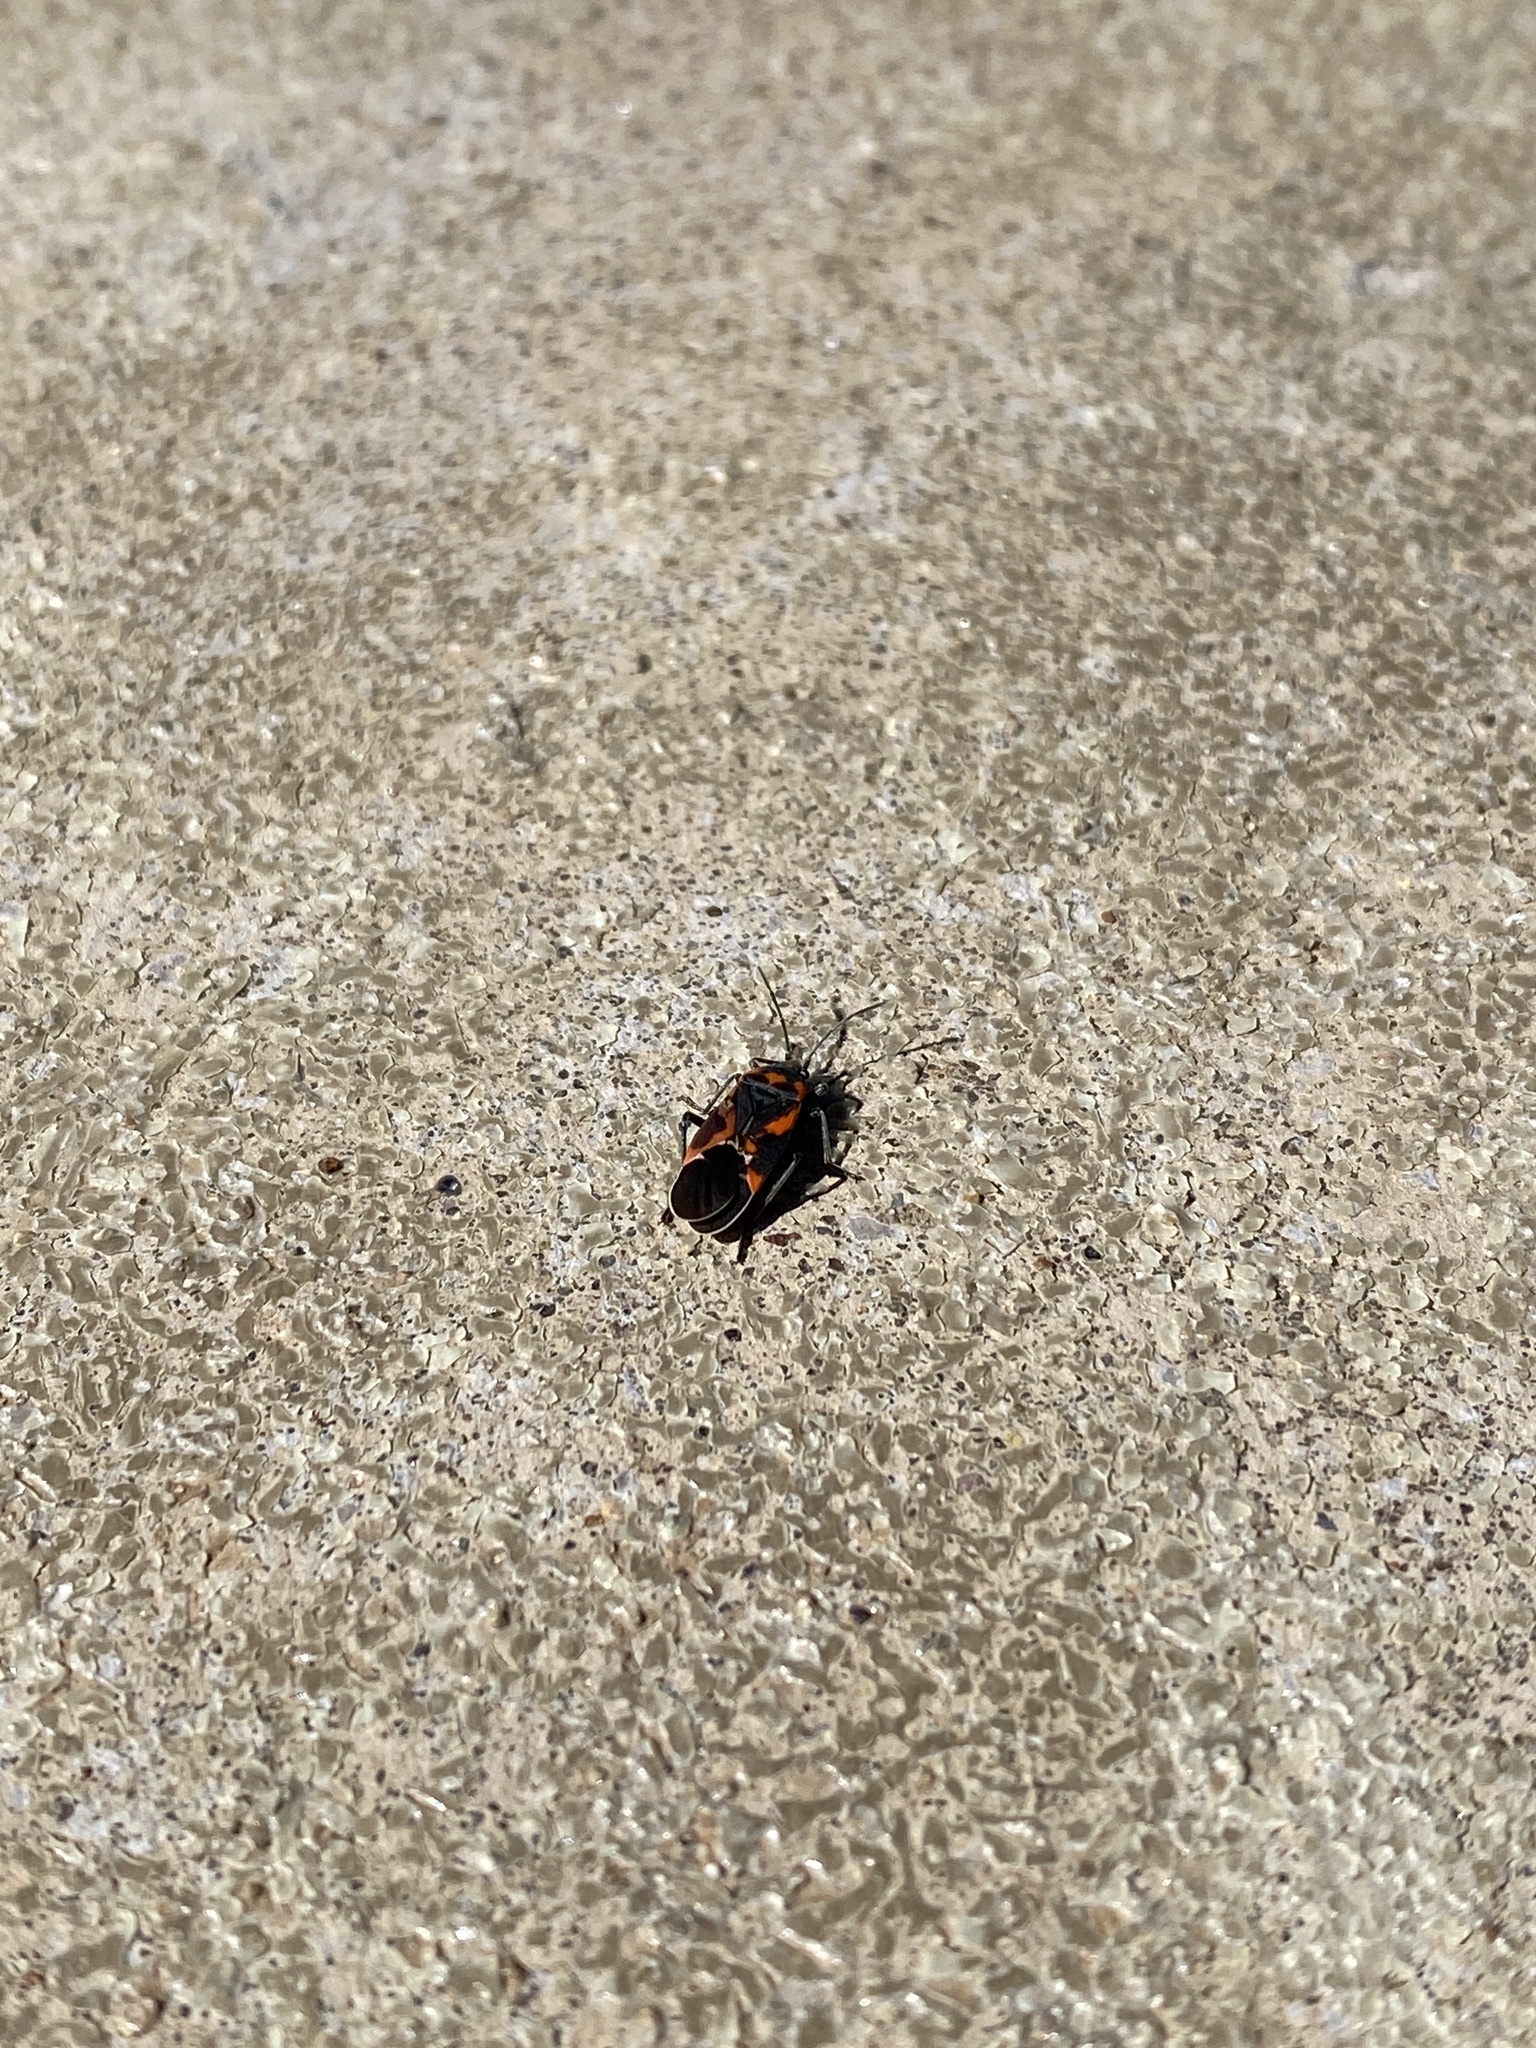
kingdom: Animalia
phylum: Arthropoda
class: Insecta
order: Hemiptera
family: Lygaeidae
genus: Lygaeus
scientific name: Lygaeus kalmii
